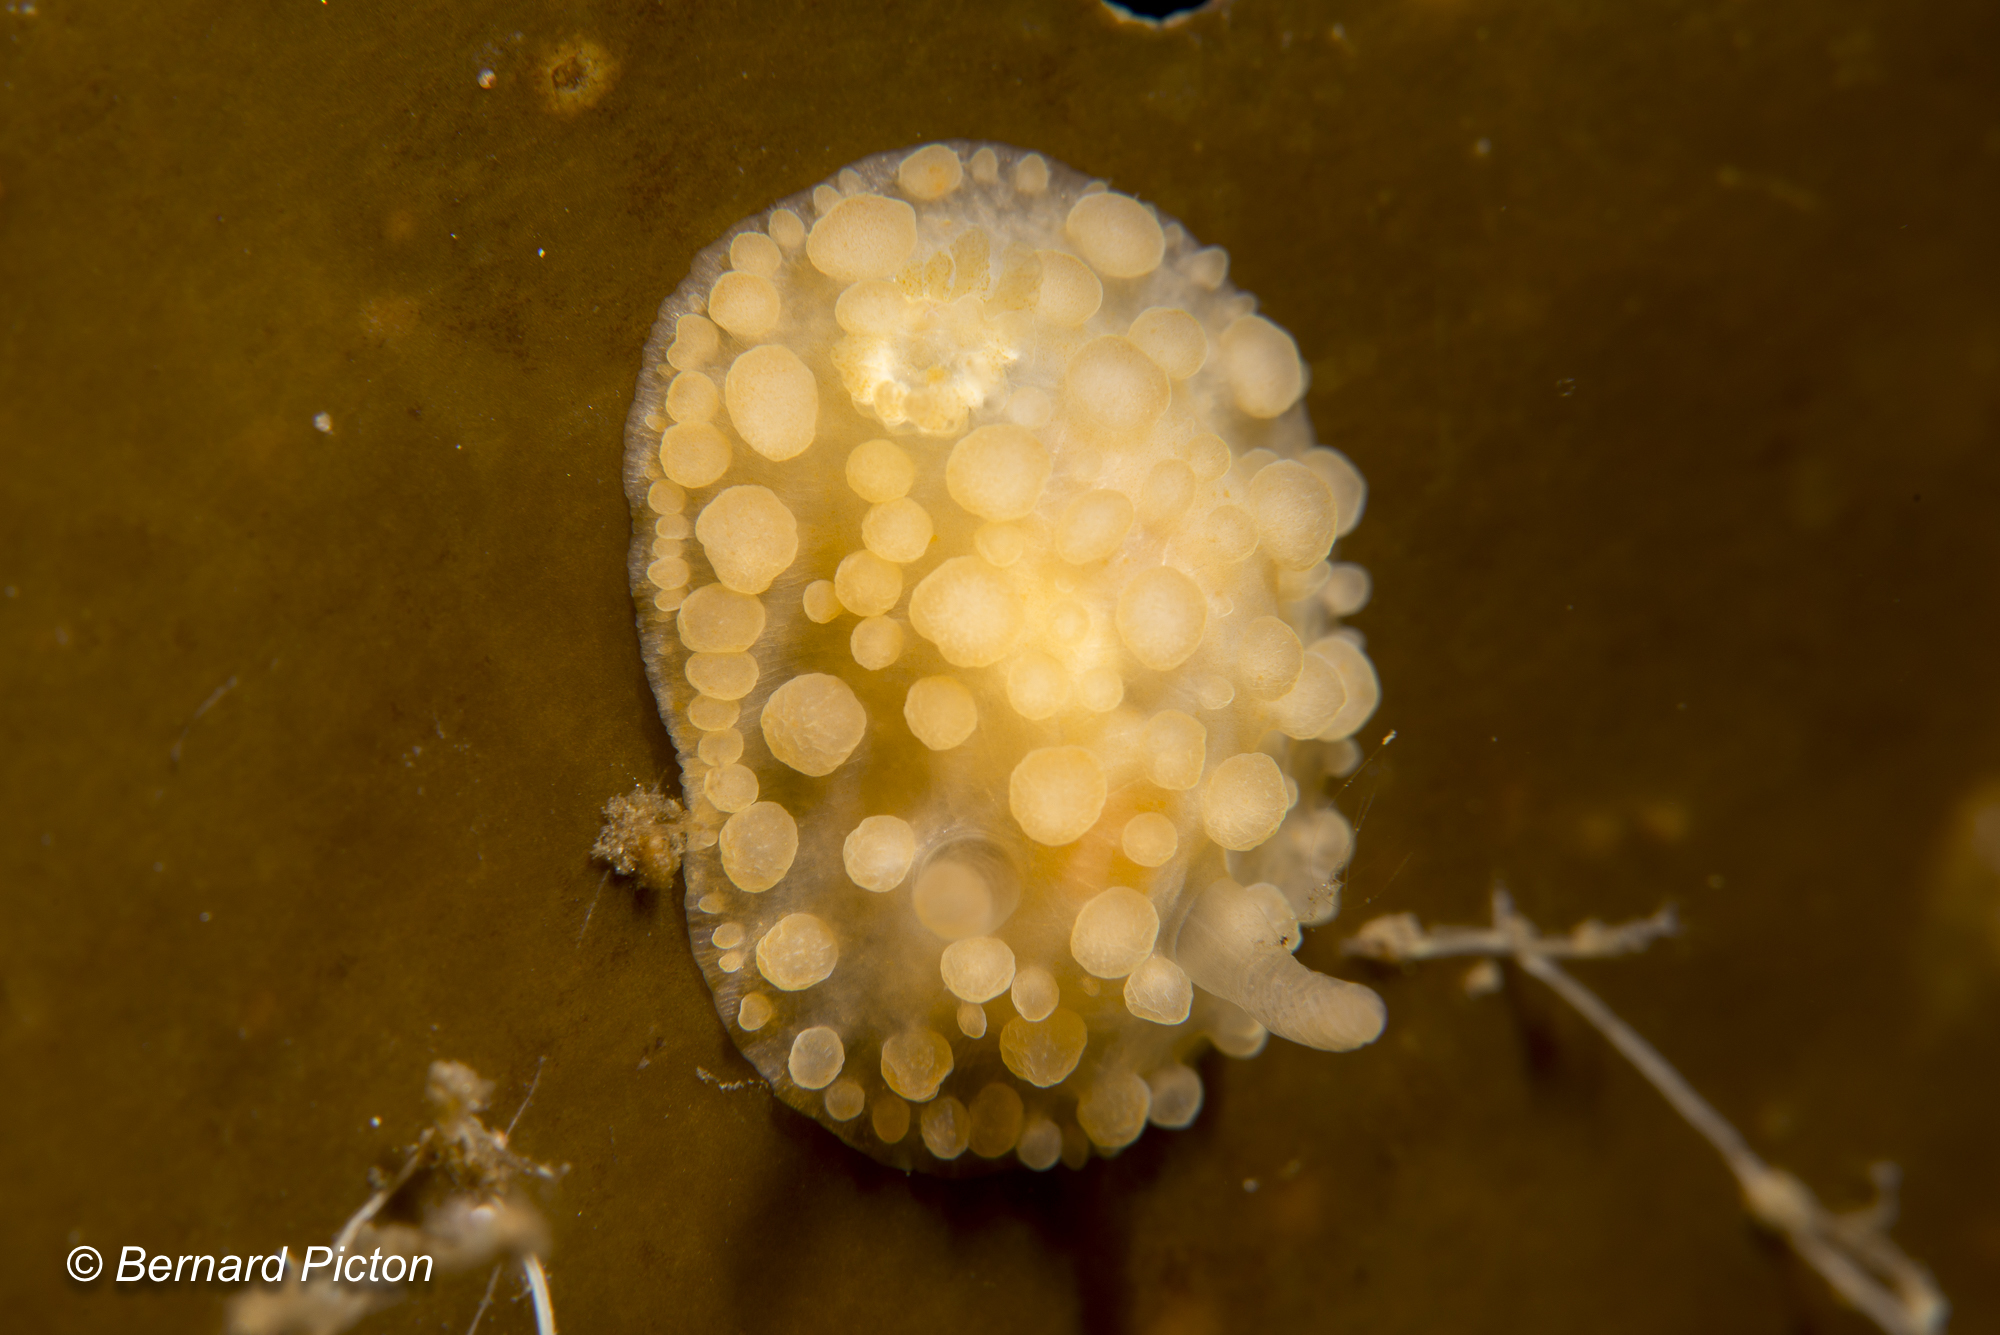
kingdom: Animalia
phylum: Mollusca
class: Gastropoda
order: Nudibranchia
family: Onchidorididae
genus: Adalaria
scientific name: Adalaria loveni
